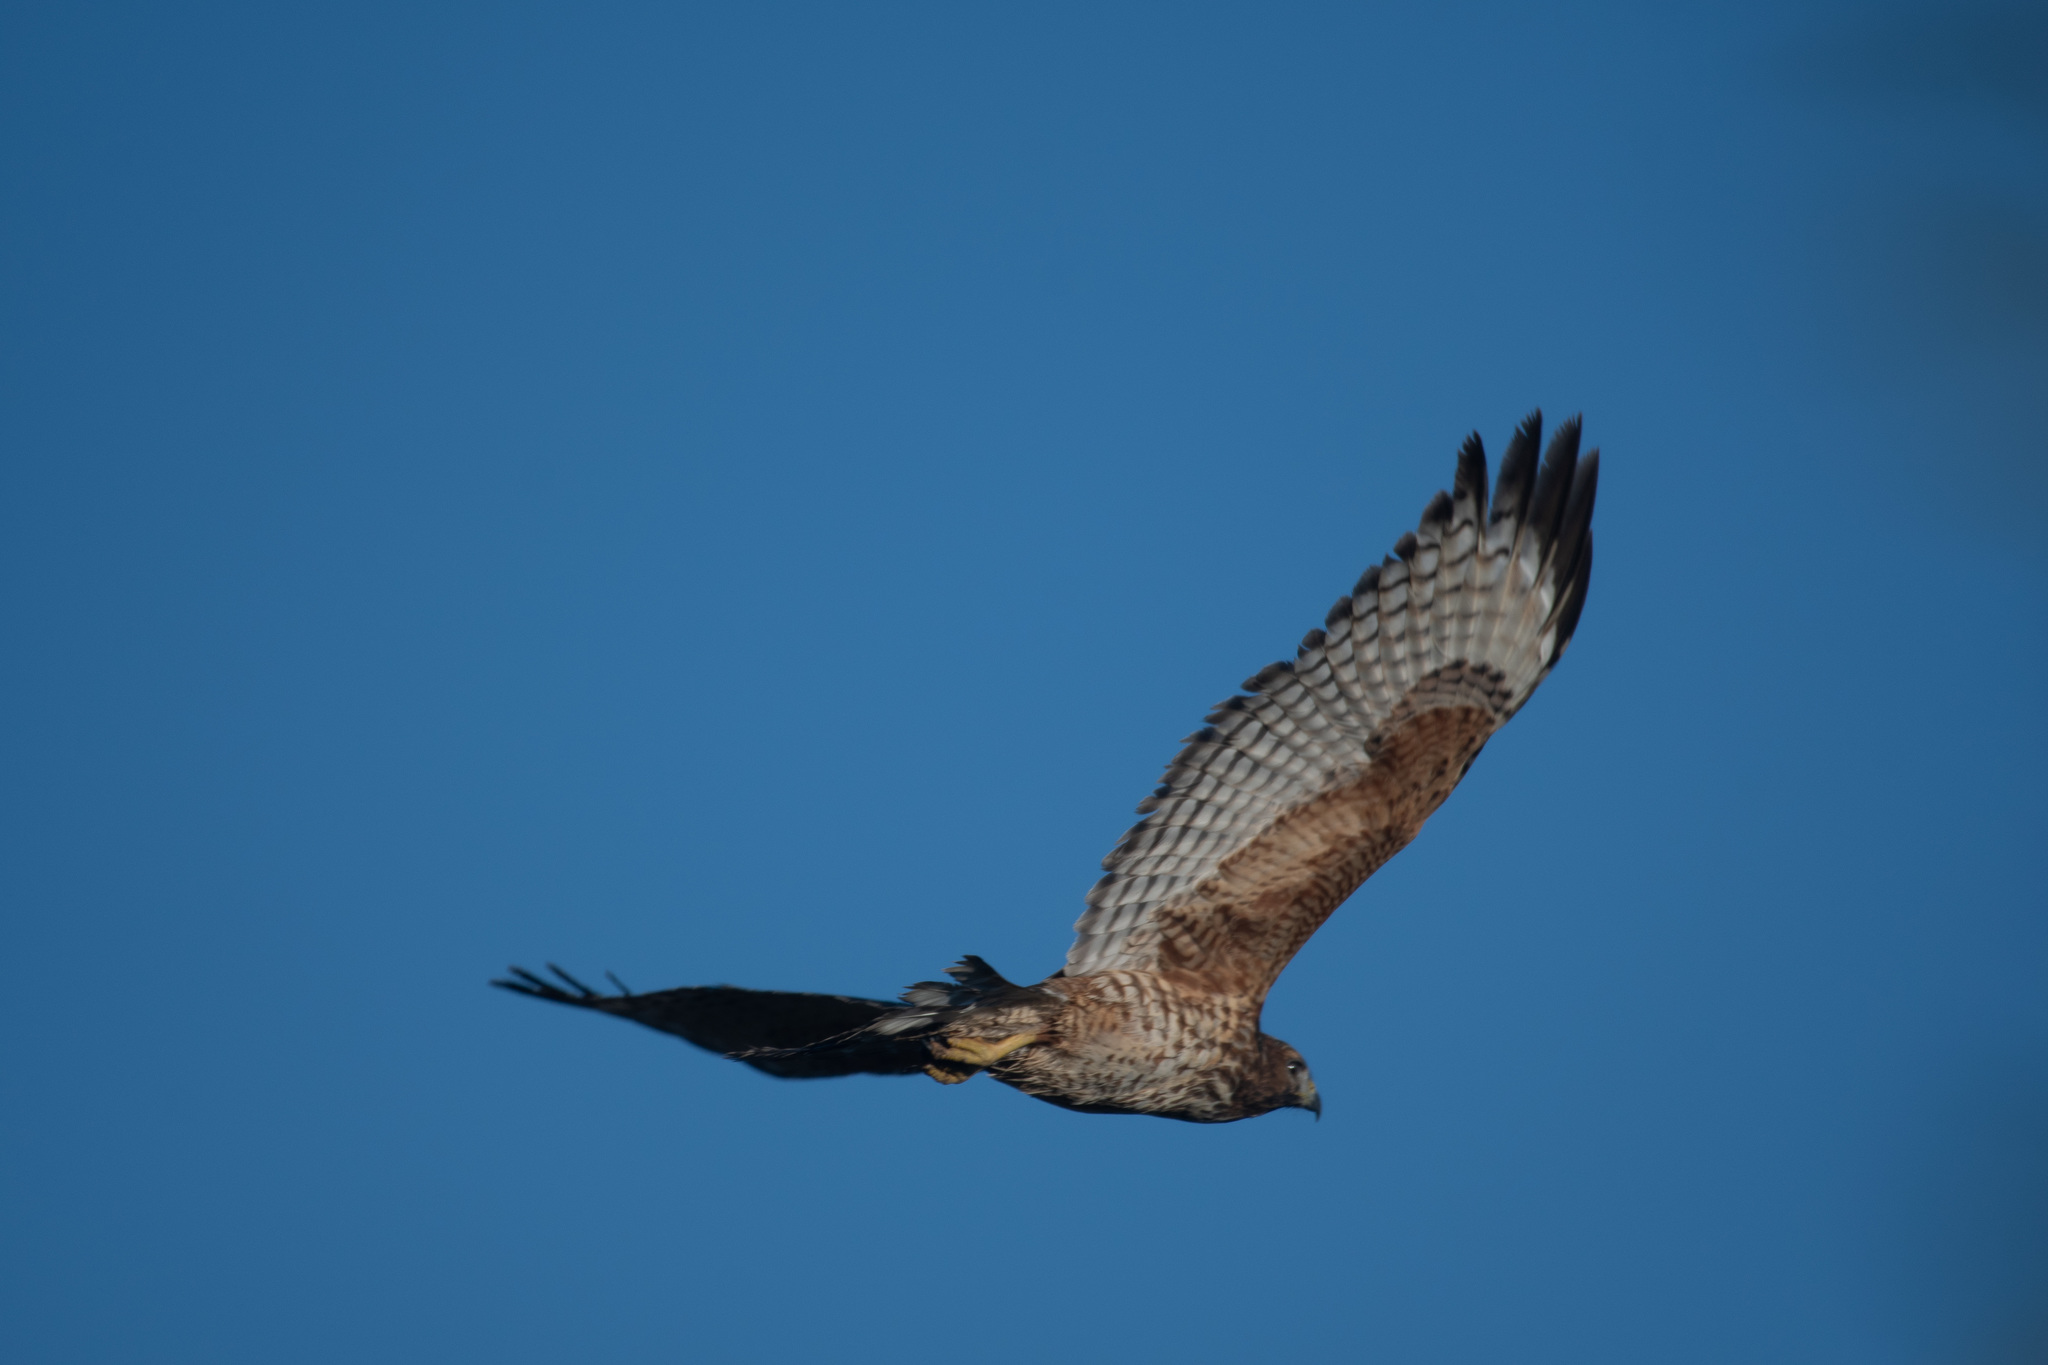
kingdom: Animalia
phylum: Chordata
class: Aves
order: Accipitriformes
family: Accipitridae
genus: Buteo
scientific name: Buteo lineatus
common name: Red-shouldered hawk
